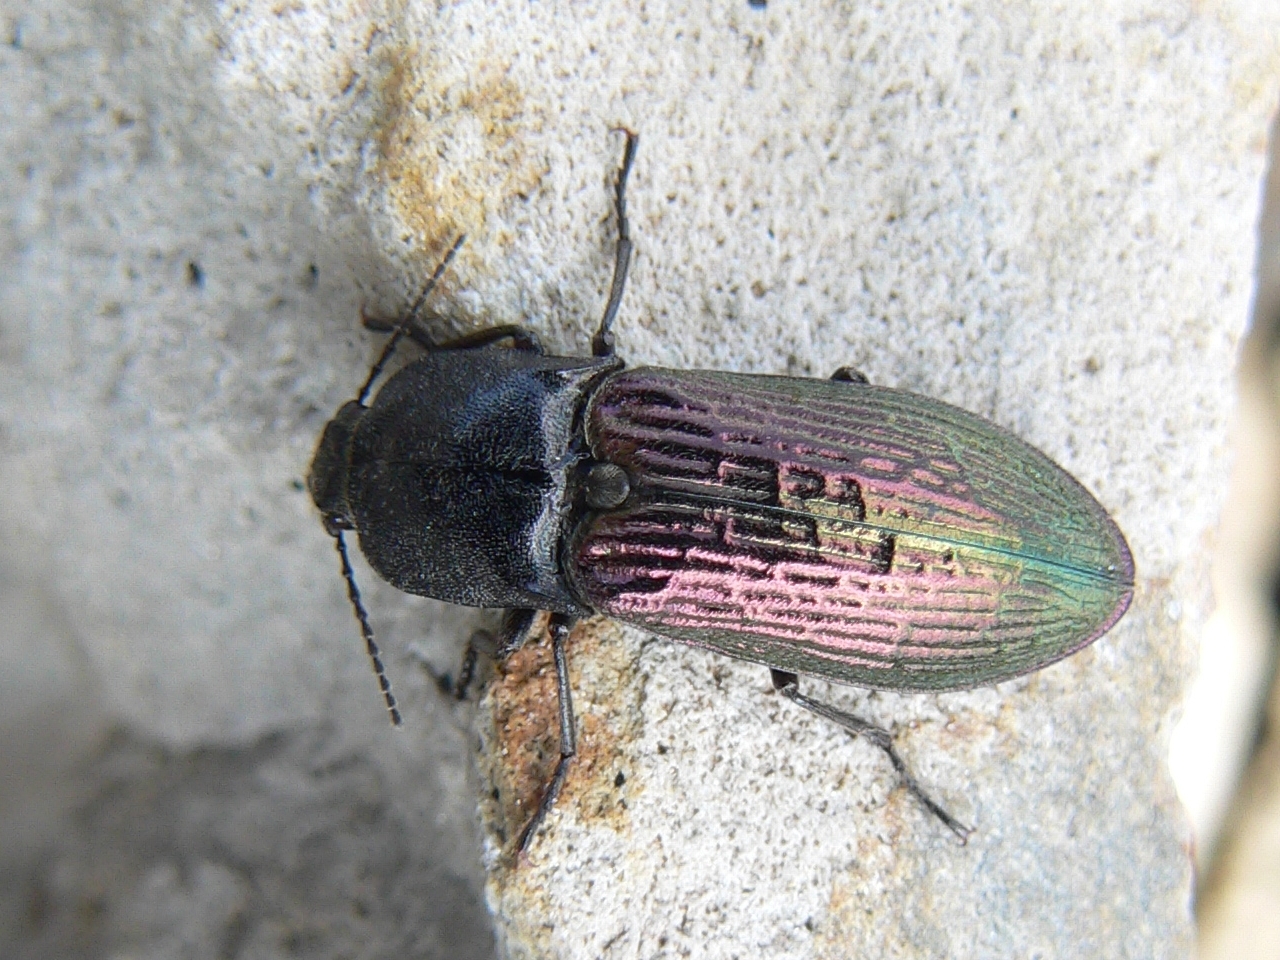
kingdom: Animalia
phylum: Arthropoda
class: Insecta
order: Coleoptera
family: Elateridae
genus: Selatosomus
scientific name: Selatosomus confluens
